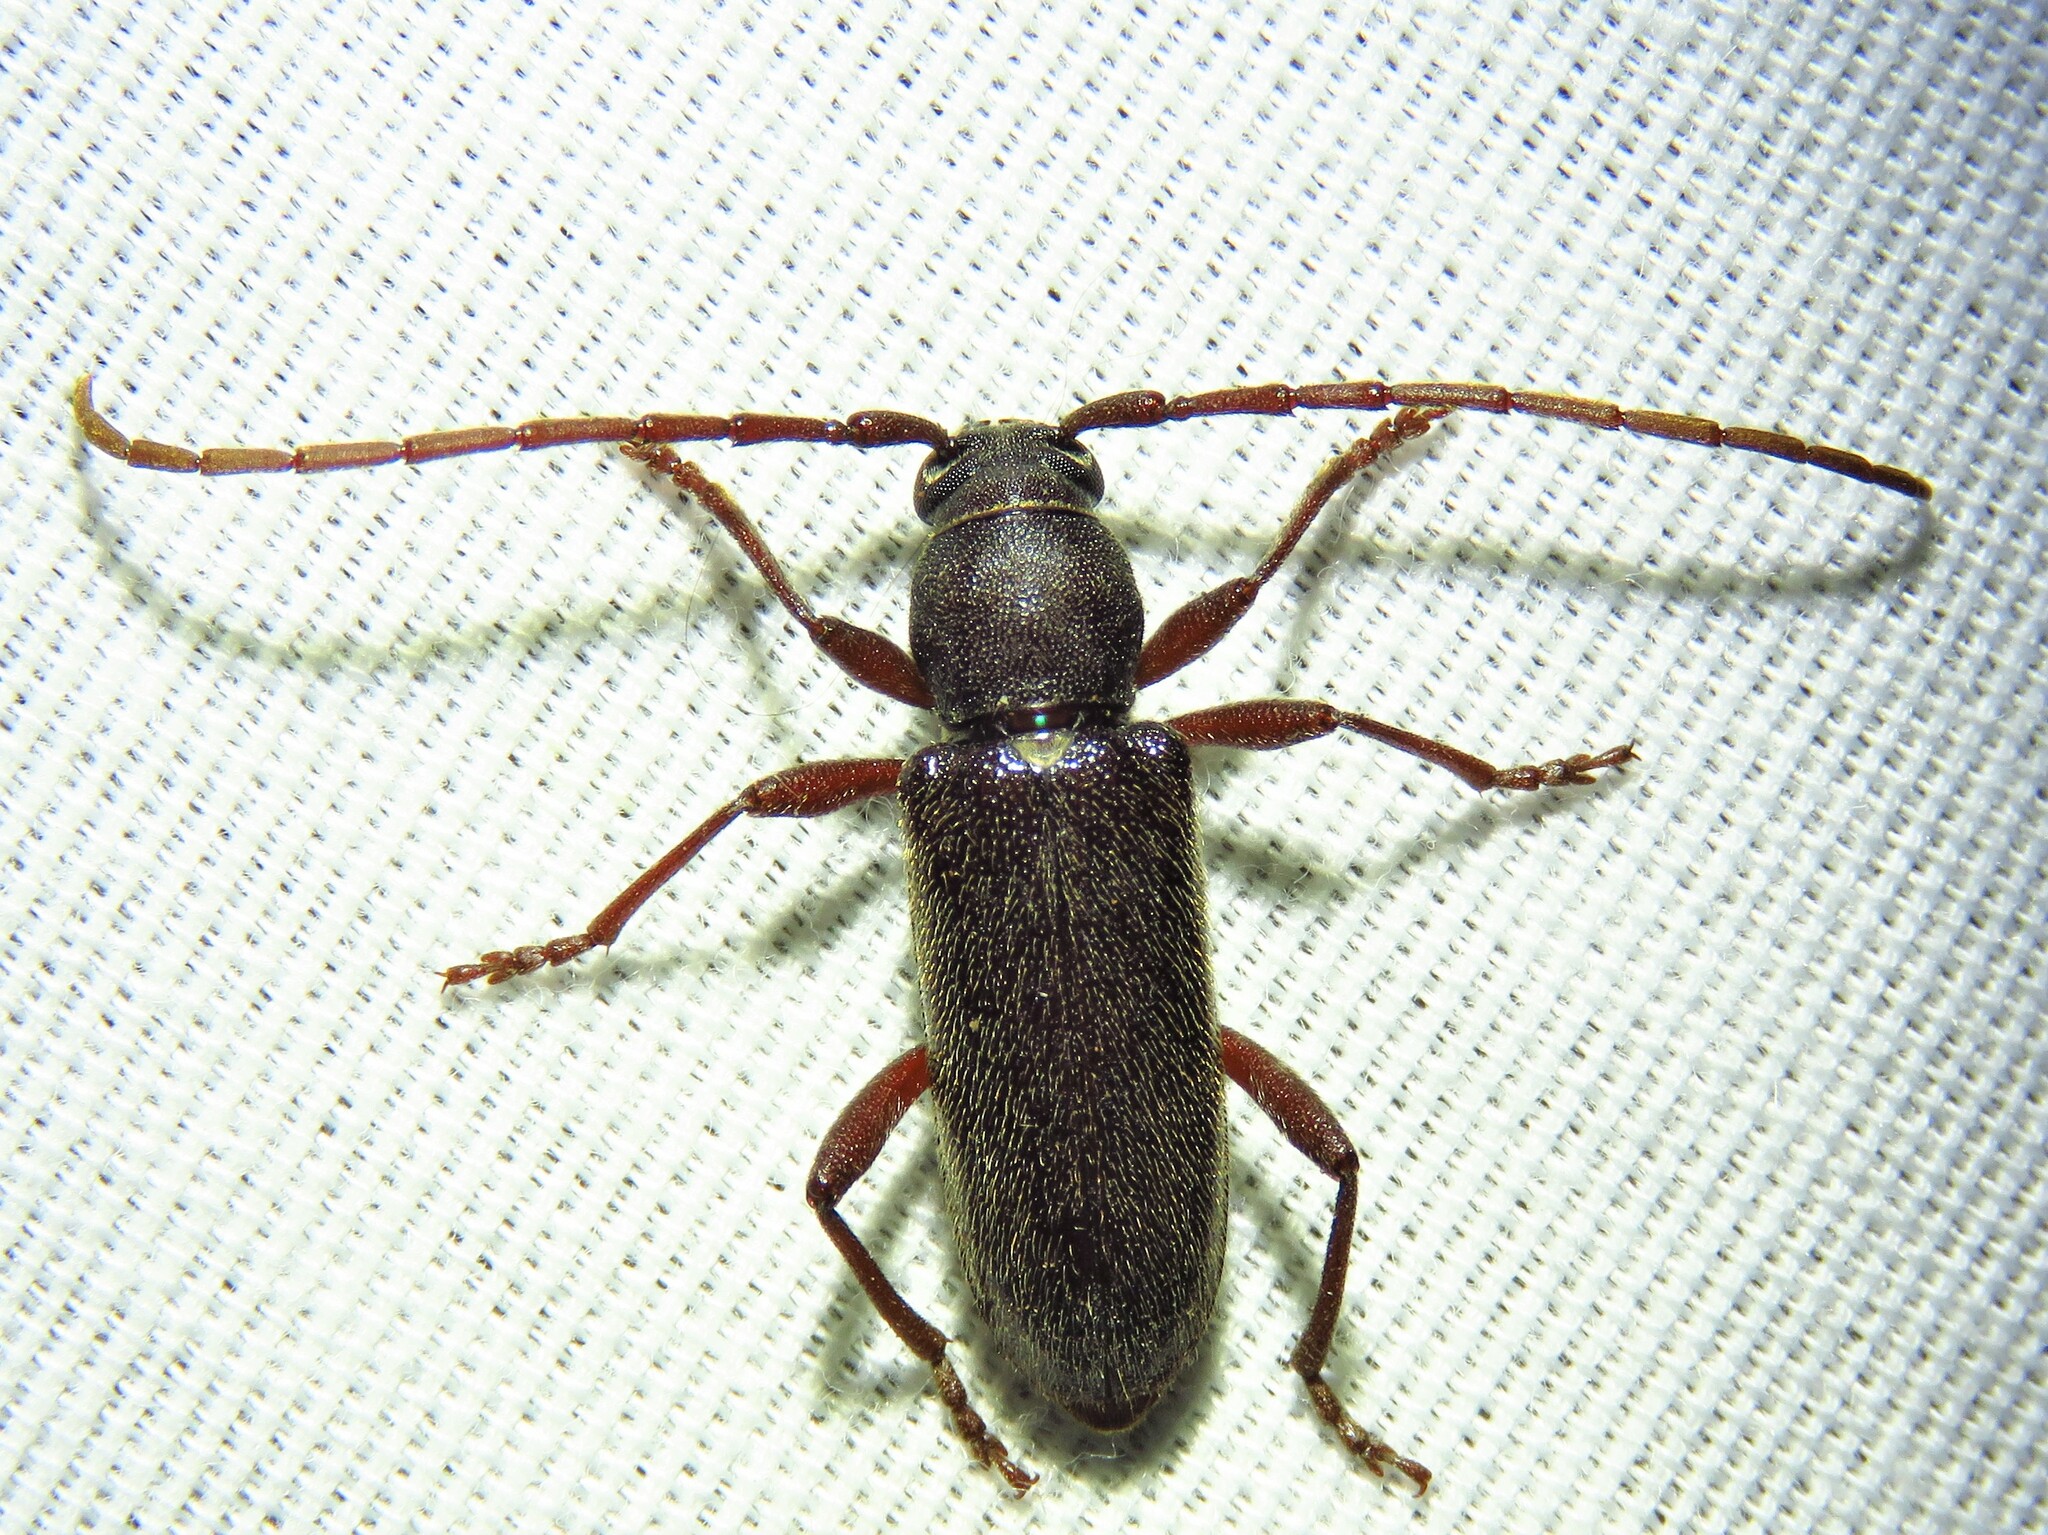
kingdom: Animalia
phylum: Arthropoda
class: Insecta
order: Coleoptera
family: Cerambycidae
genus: Anelaphus
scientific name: Anelaphus moestus
